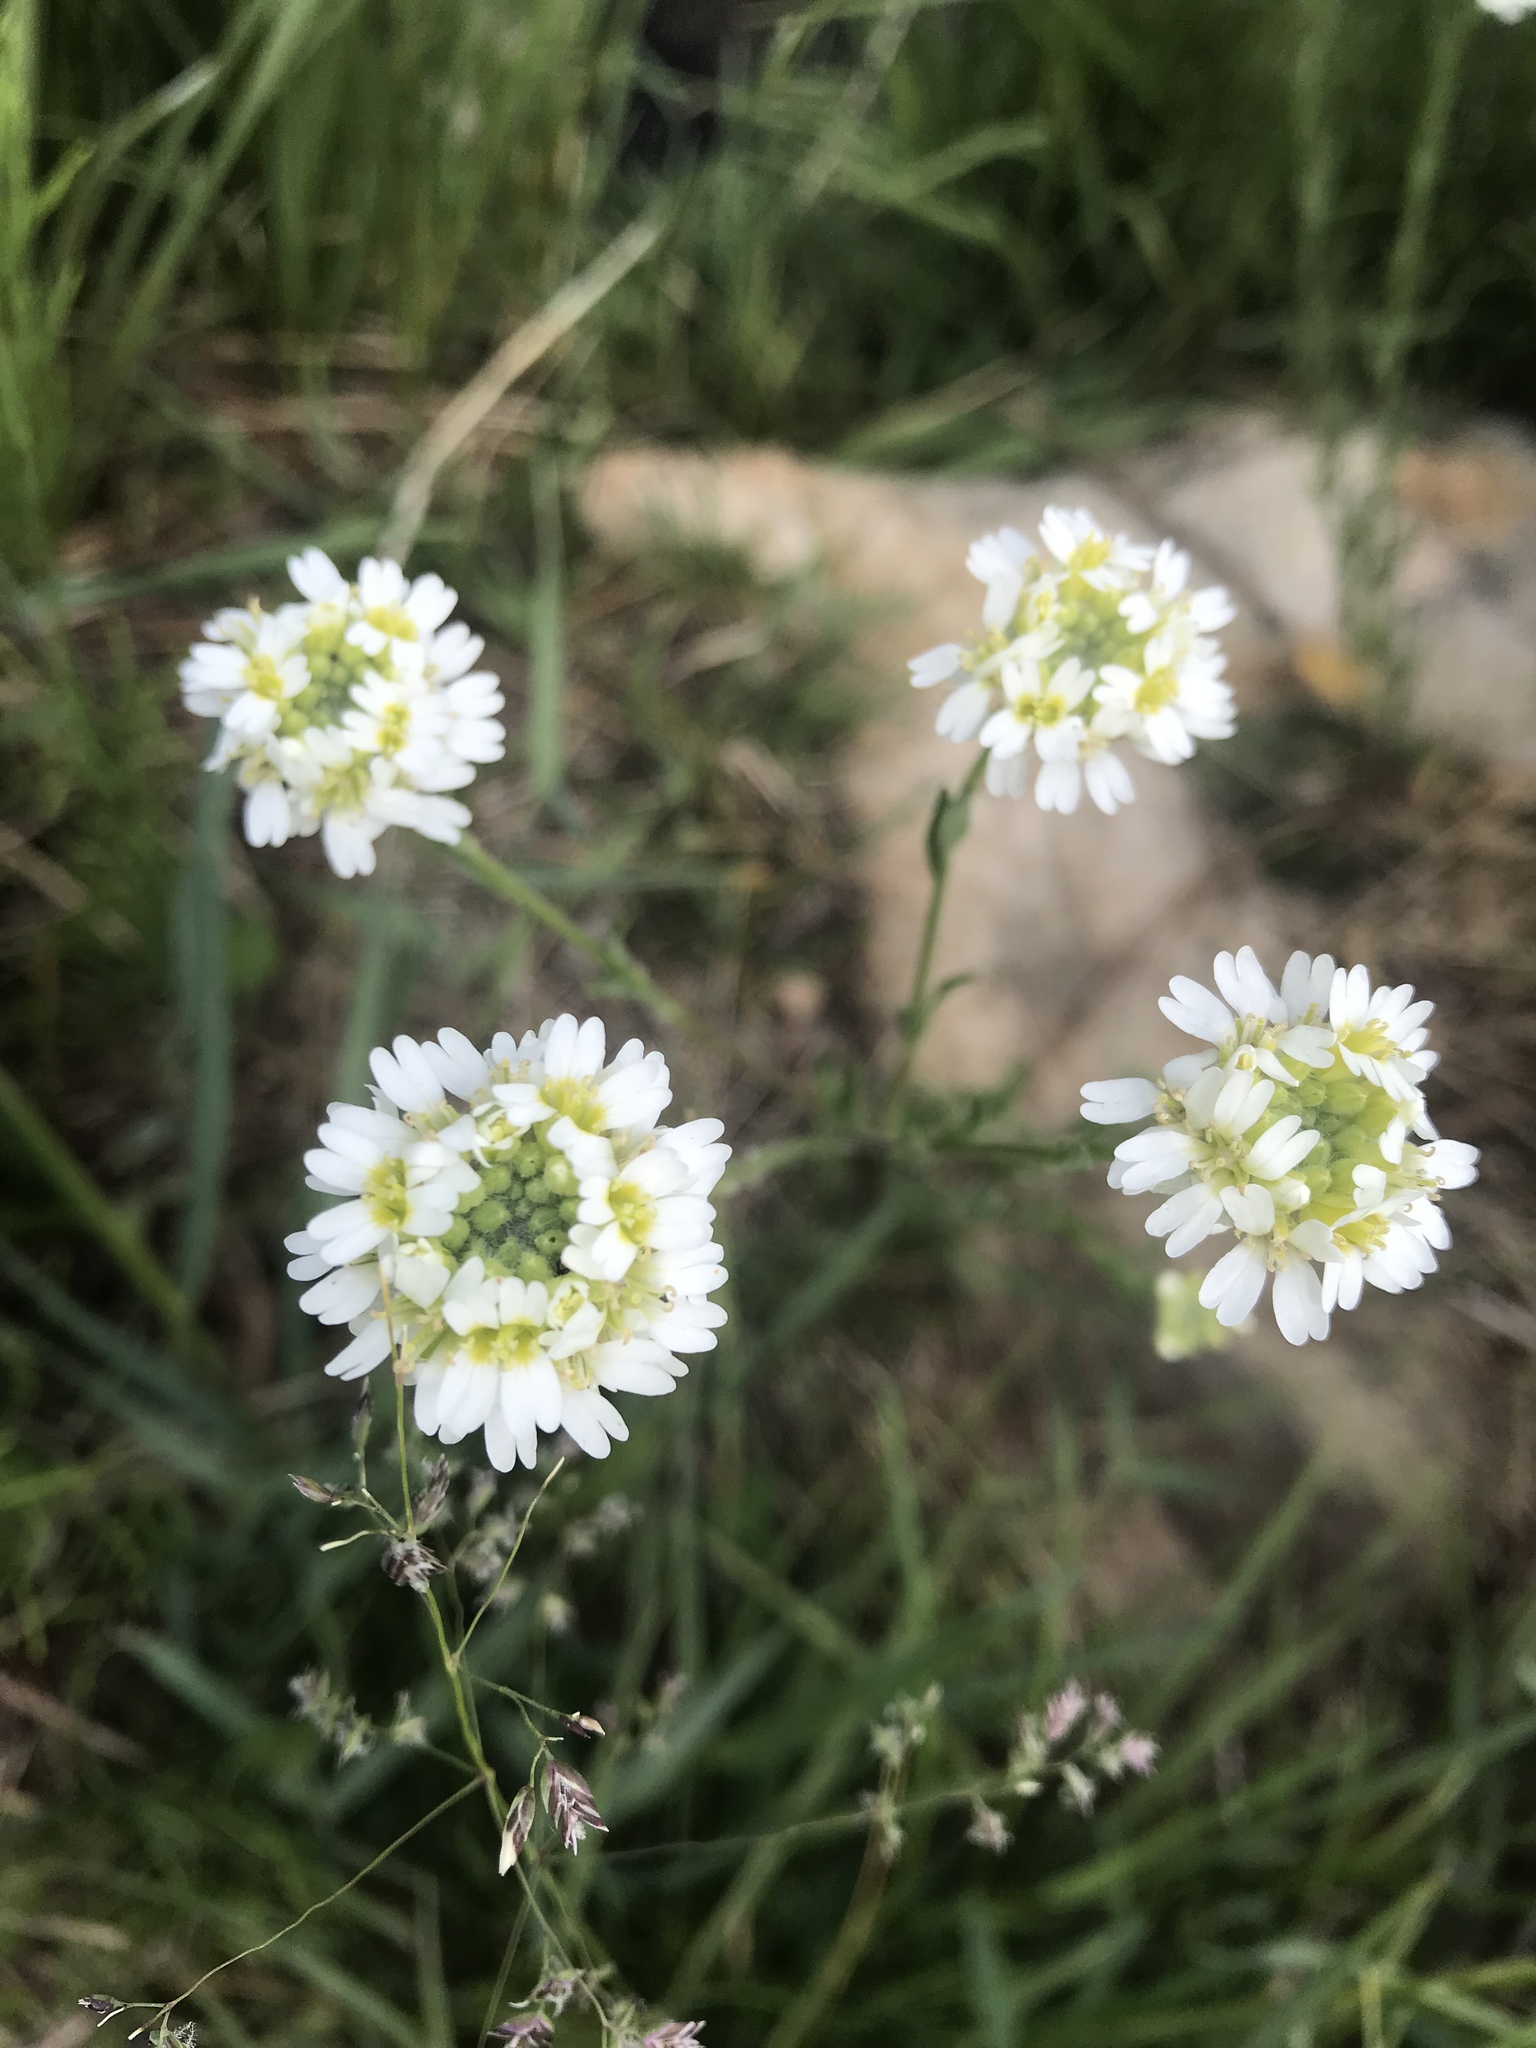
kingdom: Plantae
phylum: Tracheophyta
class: Magnoliopsida
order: Brassicales
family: Brassicaceae
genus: Berteroa
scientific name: Berteroa incana
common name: Hoary alison
